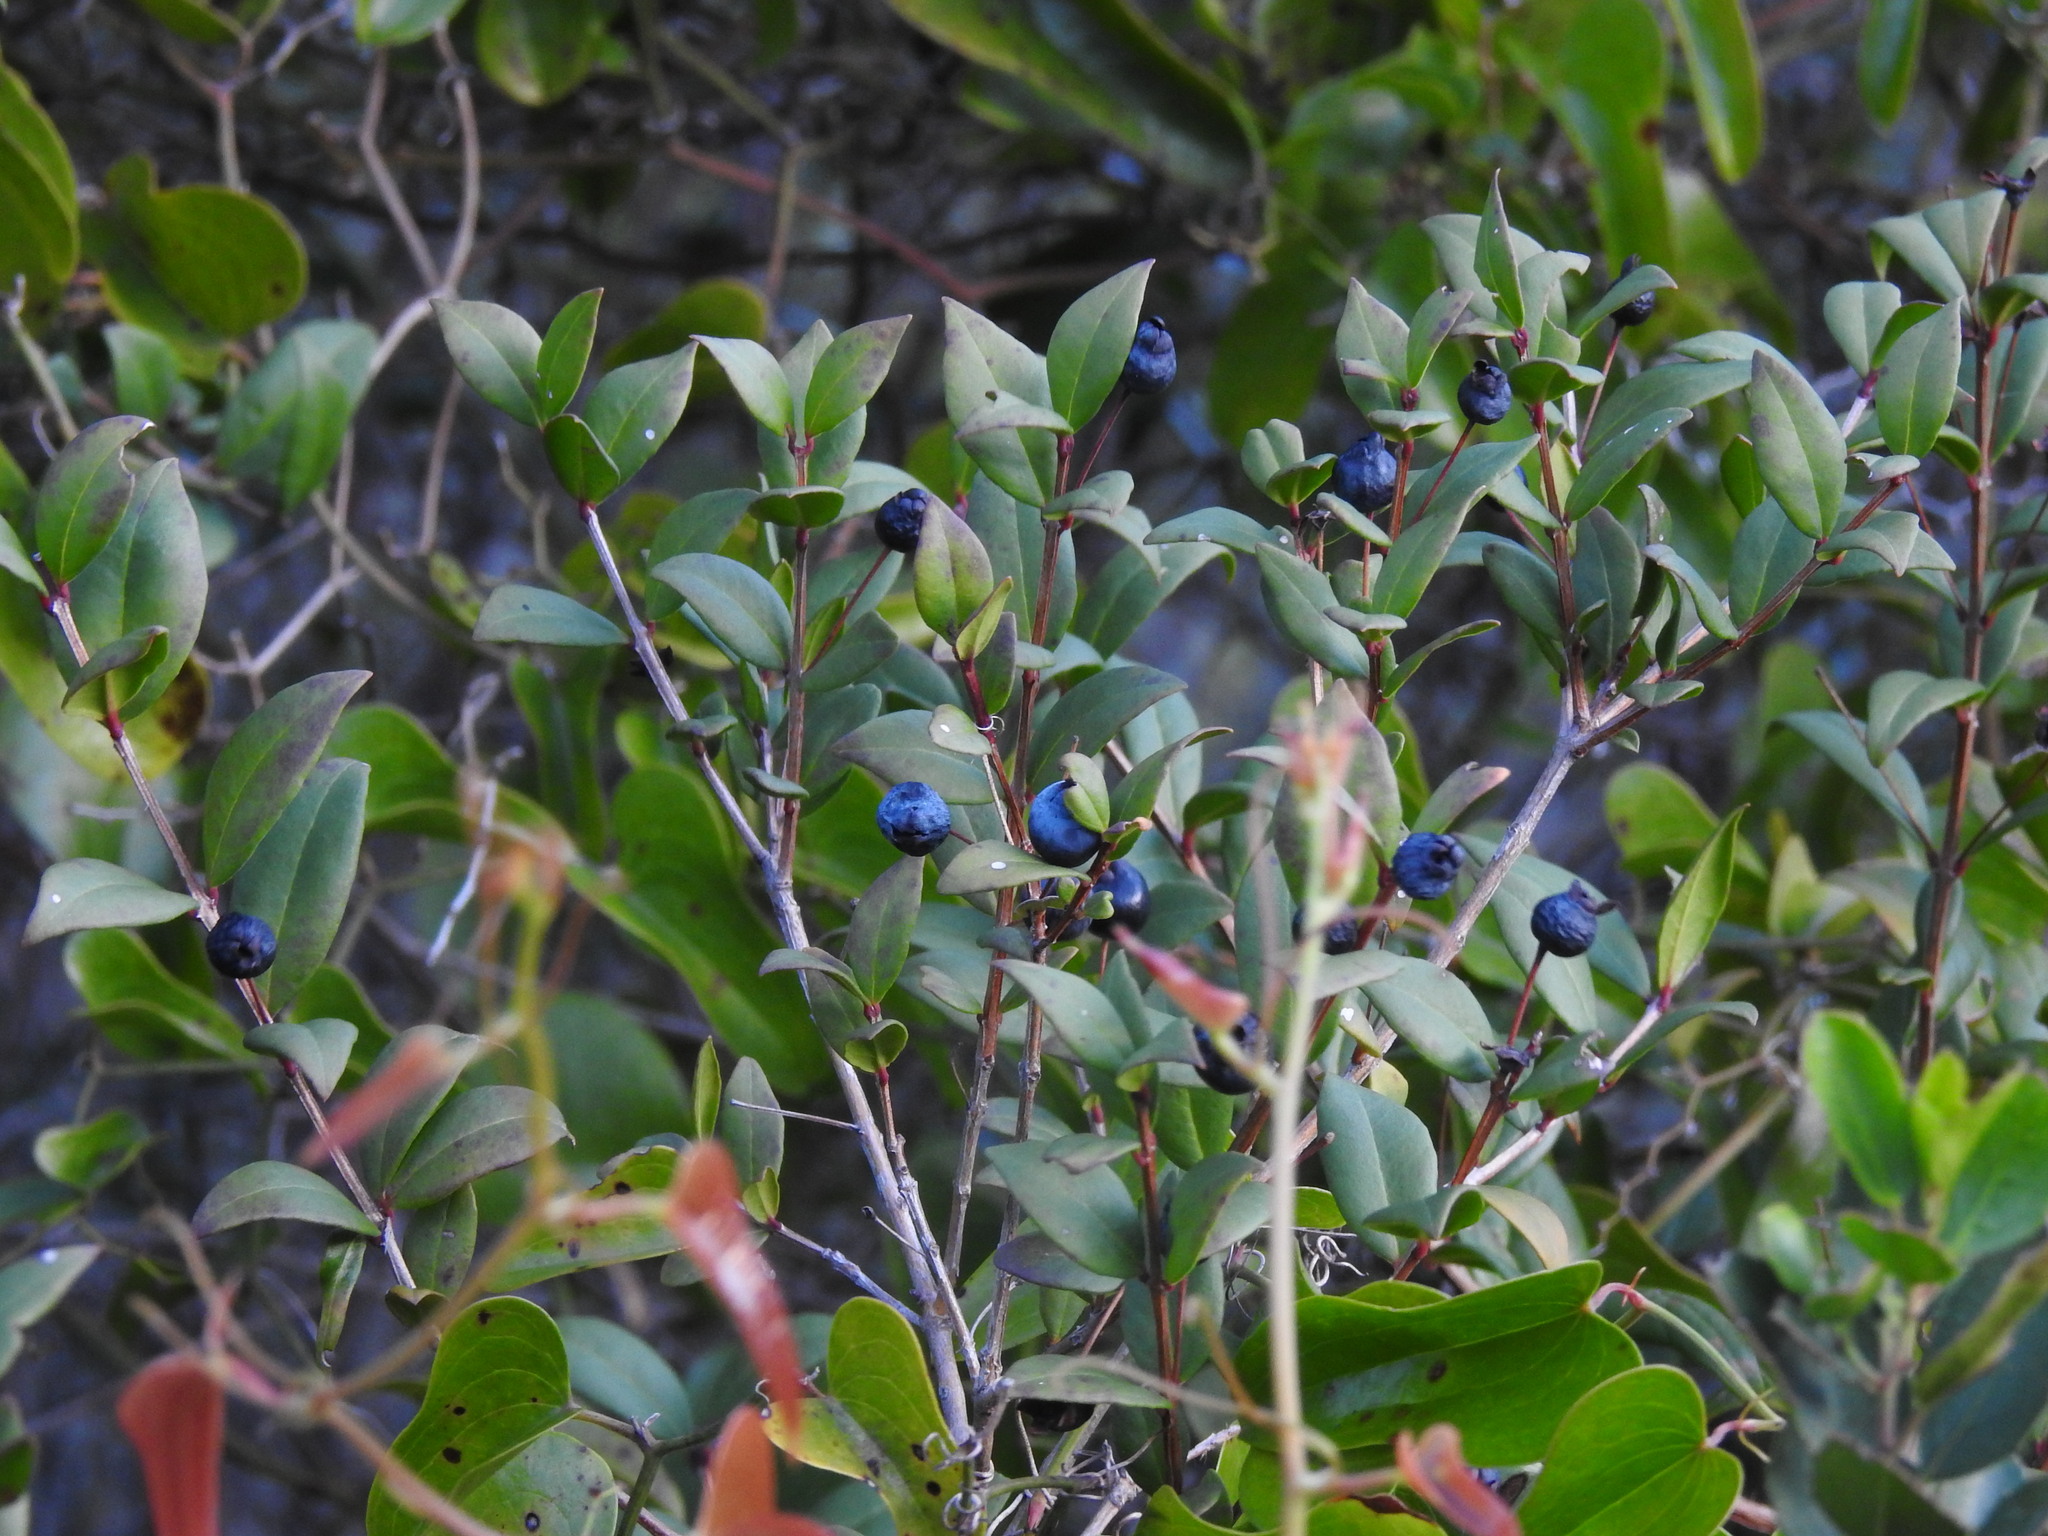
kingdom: Plantae
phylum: Tracheophyta
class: Magnoliopsida
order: Myrtales
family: Myrtaceae
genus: Myrtus
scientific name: Myrtus communis
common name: Myrtle
